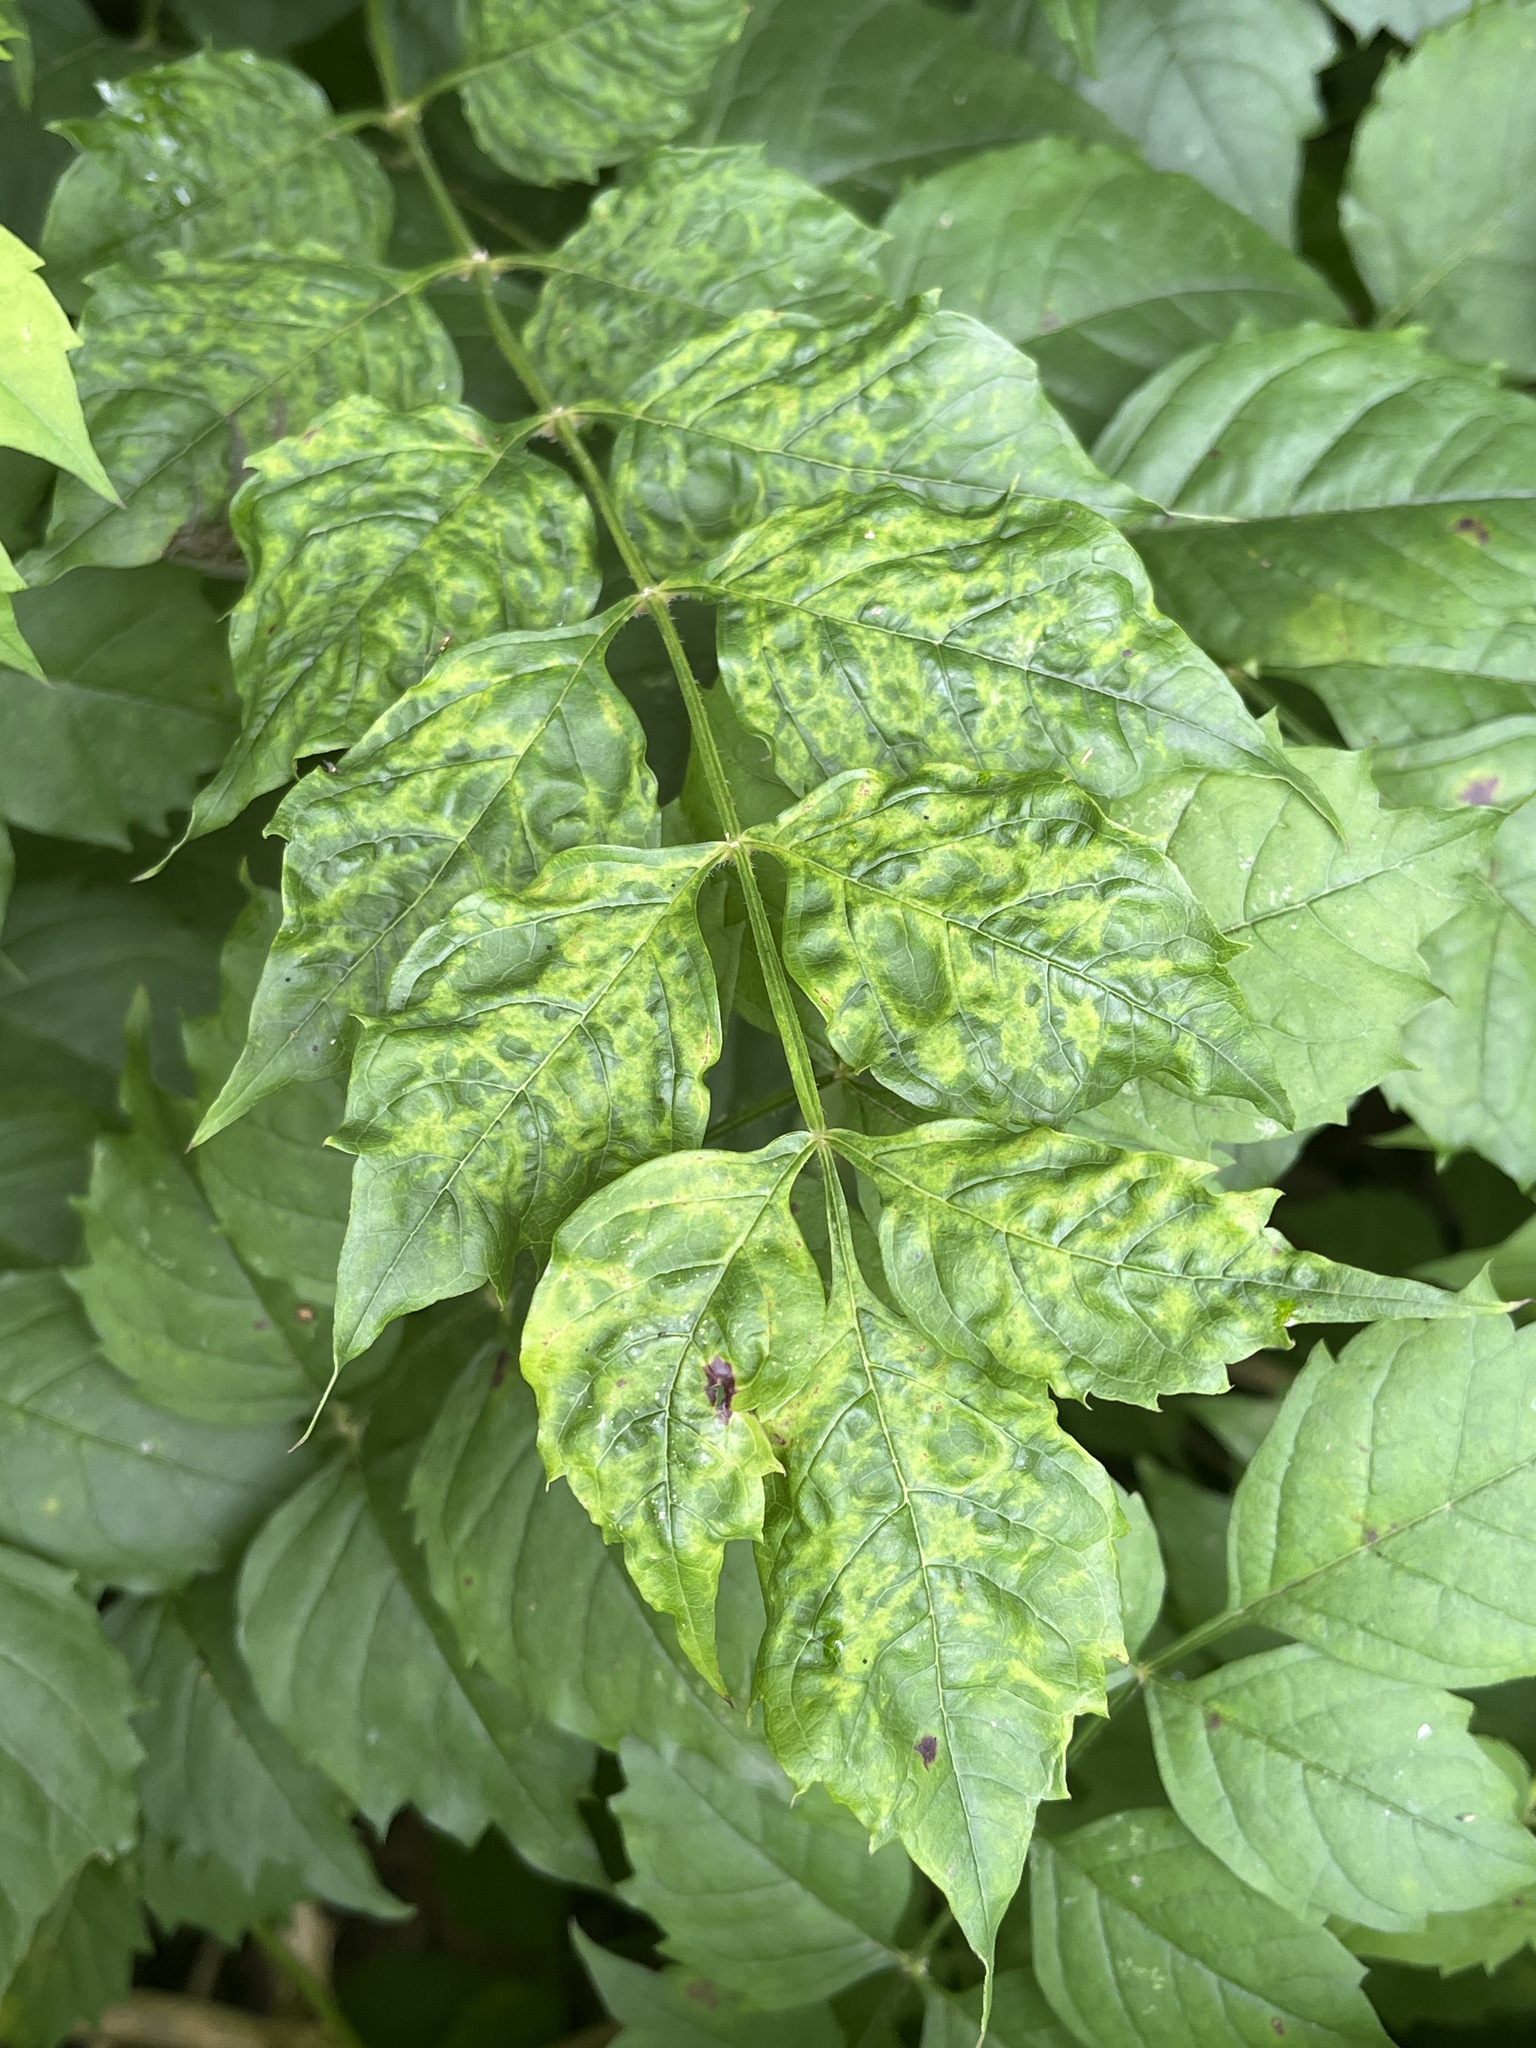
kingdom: Plantae
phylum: Tracheophyta
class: Magnoliopsida
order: Lamiales
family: Bignoniaceae
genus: Campsis
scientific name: Campsis radicans
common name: Trumpet-creeper
